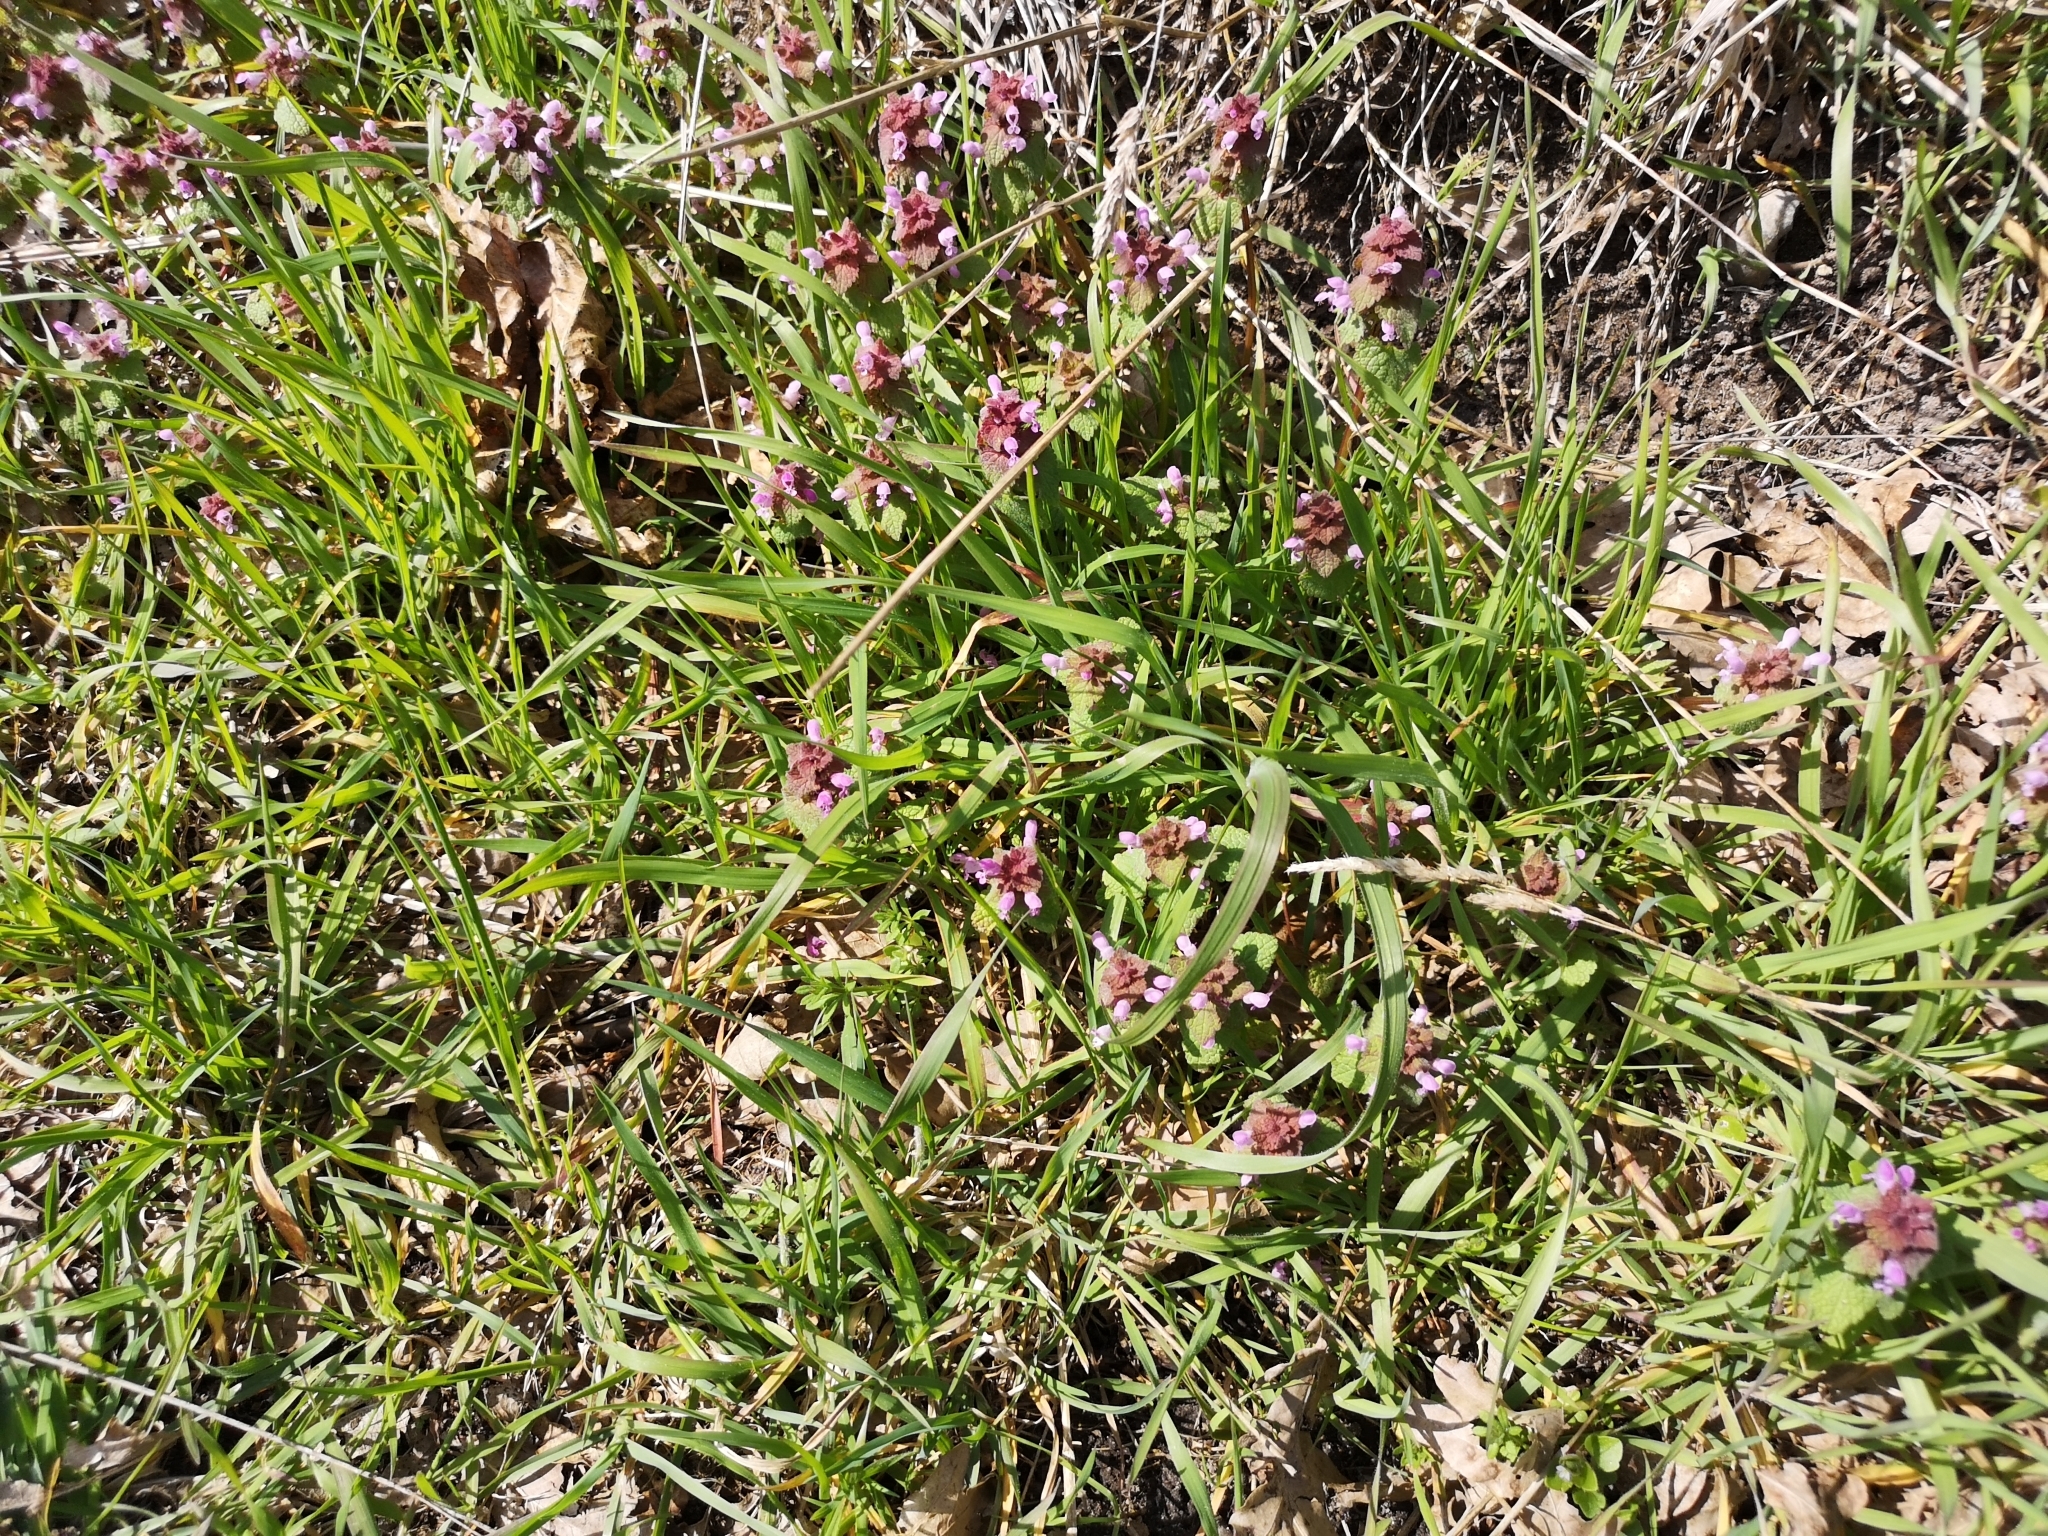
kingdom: Plantae
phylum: Tracheophyta
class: Magnoliopsida
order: Lamiales
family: Lamiaceae
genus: Lamium
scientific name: Lamium purpureum
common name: Red dead-nettle
